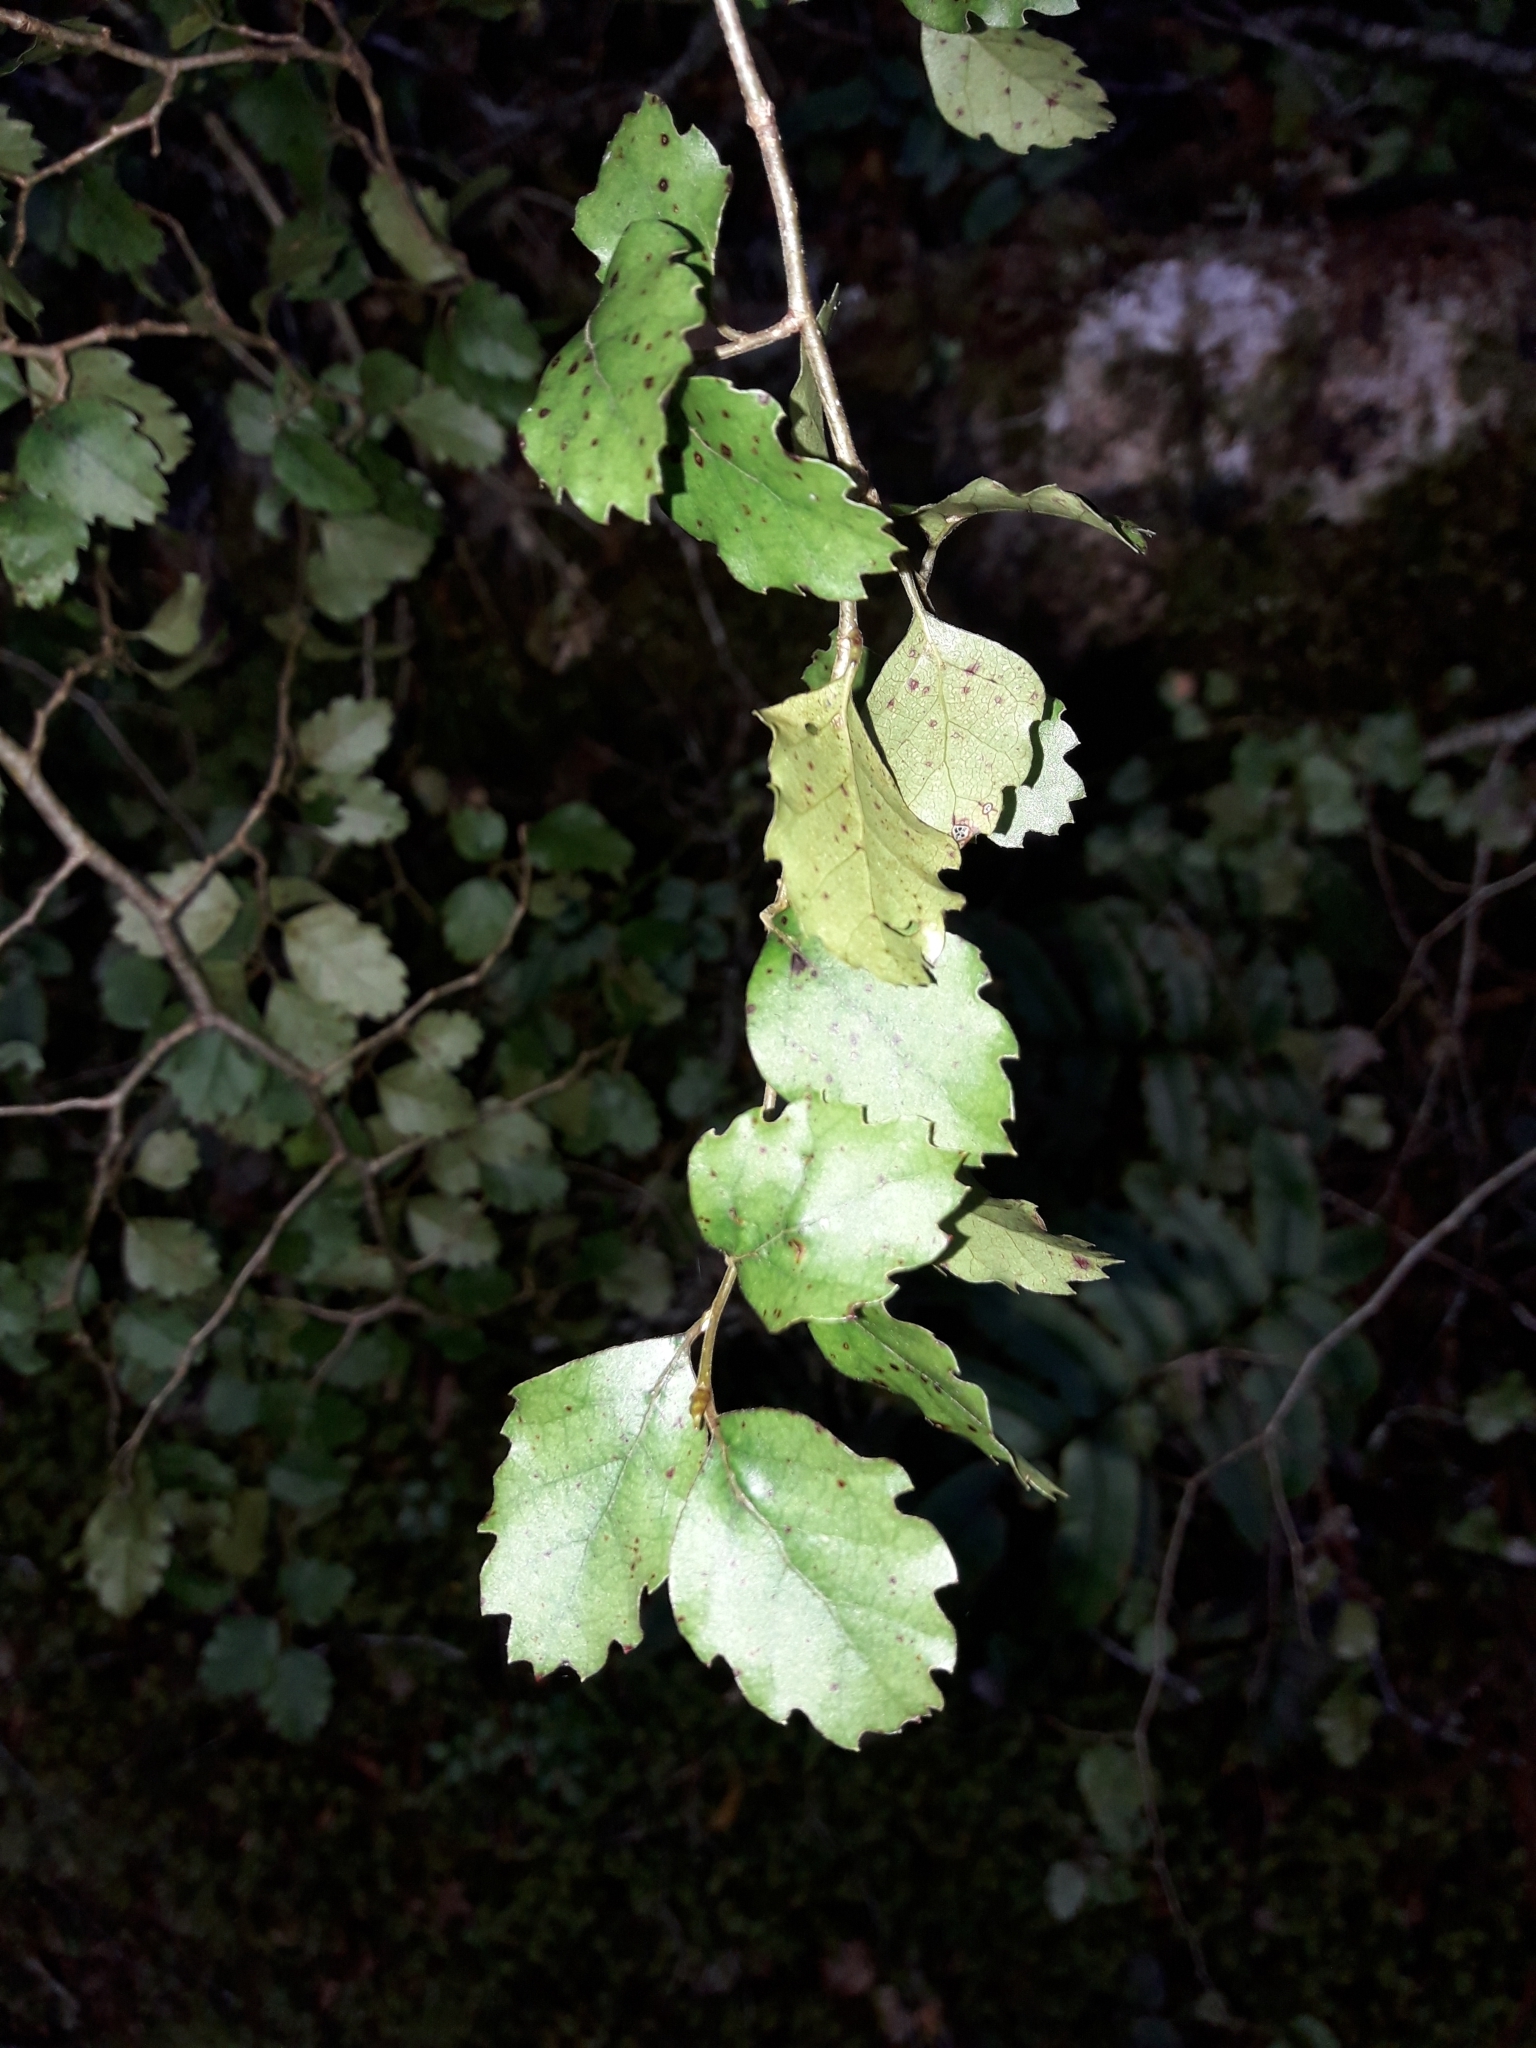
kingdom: Plantae
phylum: Tracheophyta
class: Magnoliopsida
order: Fagales
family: Nothofagaceae
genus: Nothofagus
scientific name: Nothofagus fusca
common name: Red beech
